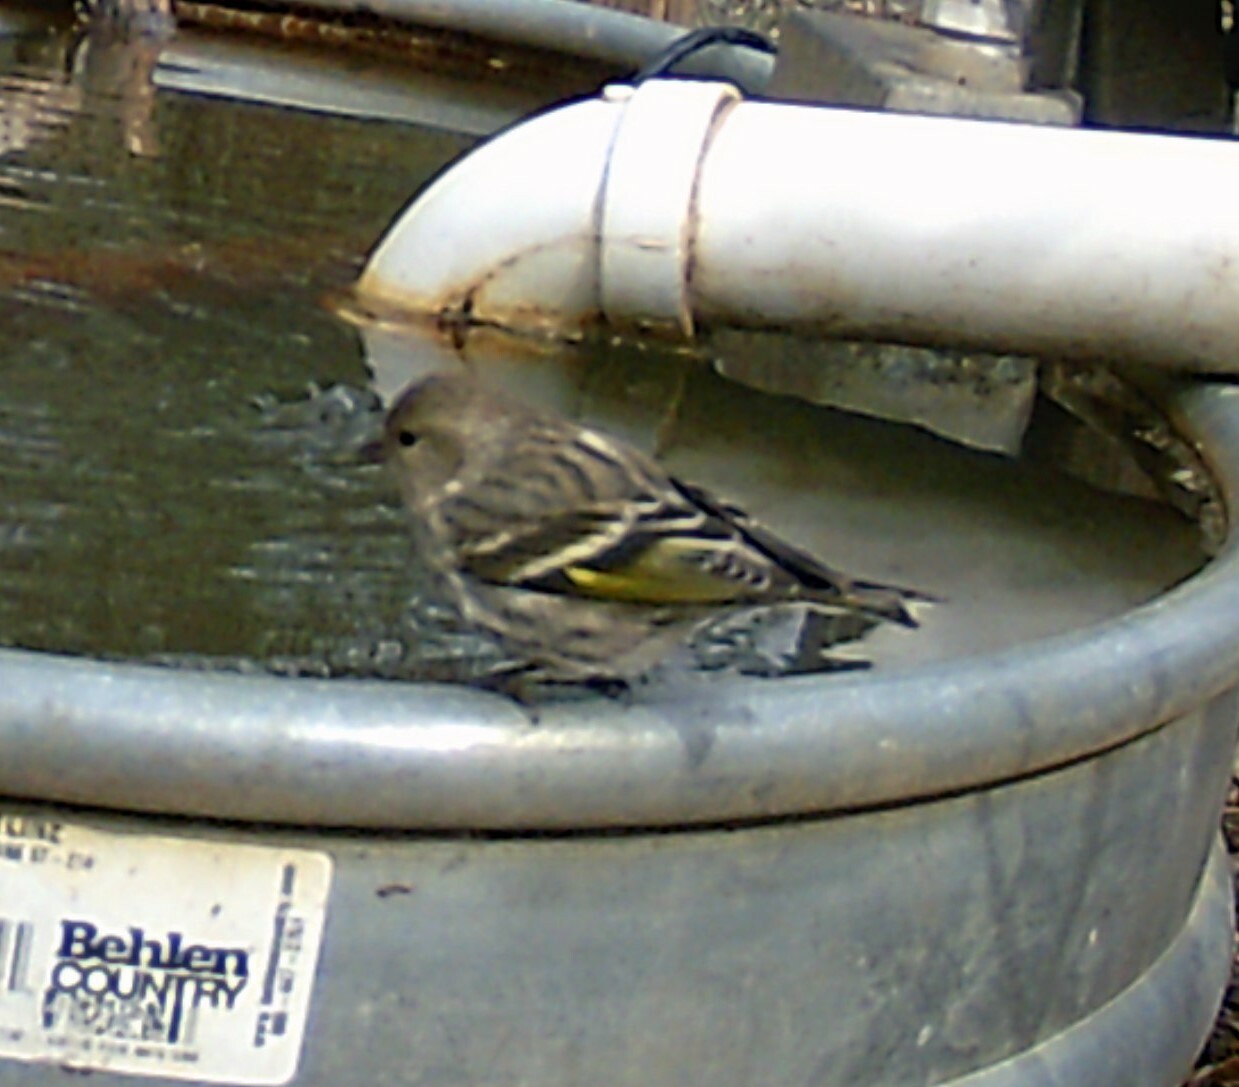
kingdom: Animalia
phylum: Chordata
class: Aves
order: Passeriformes
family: Fringillidae
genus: Spinus
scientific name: Spinus pinus
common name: Pine siskin
